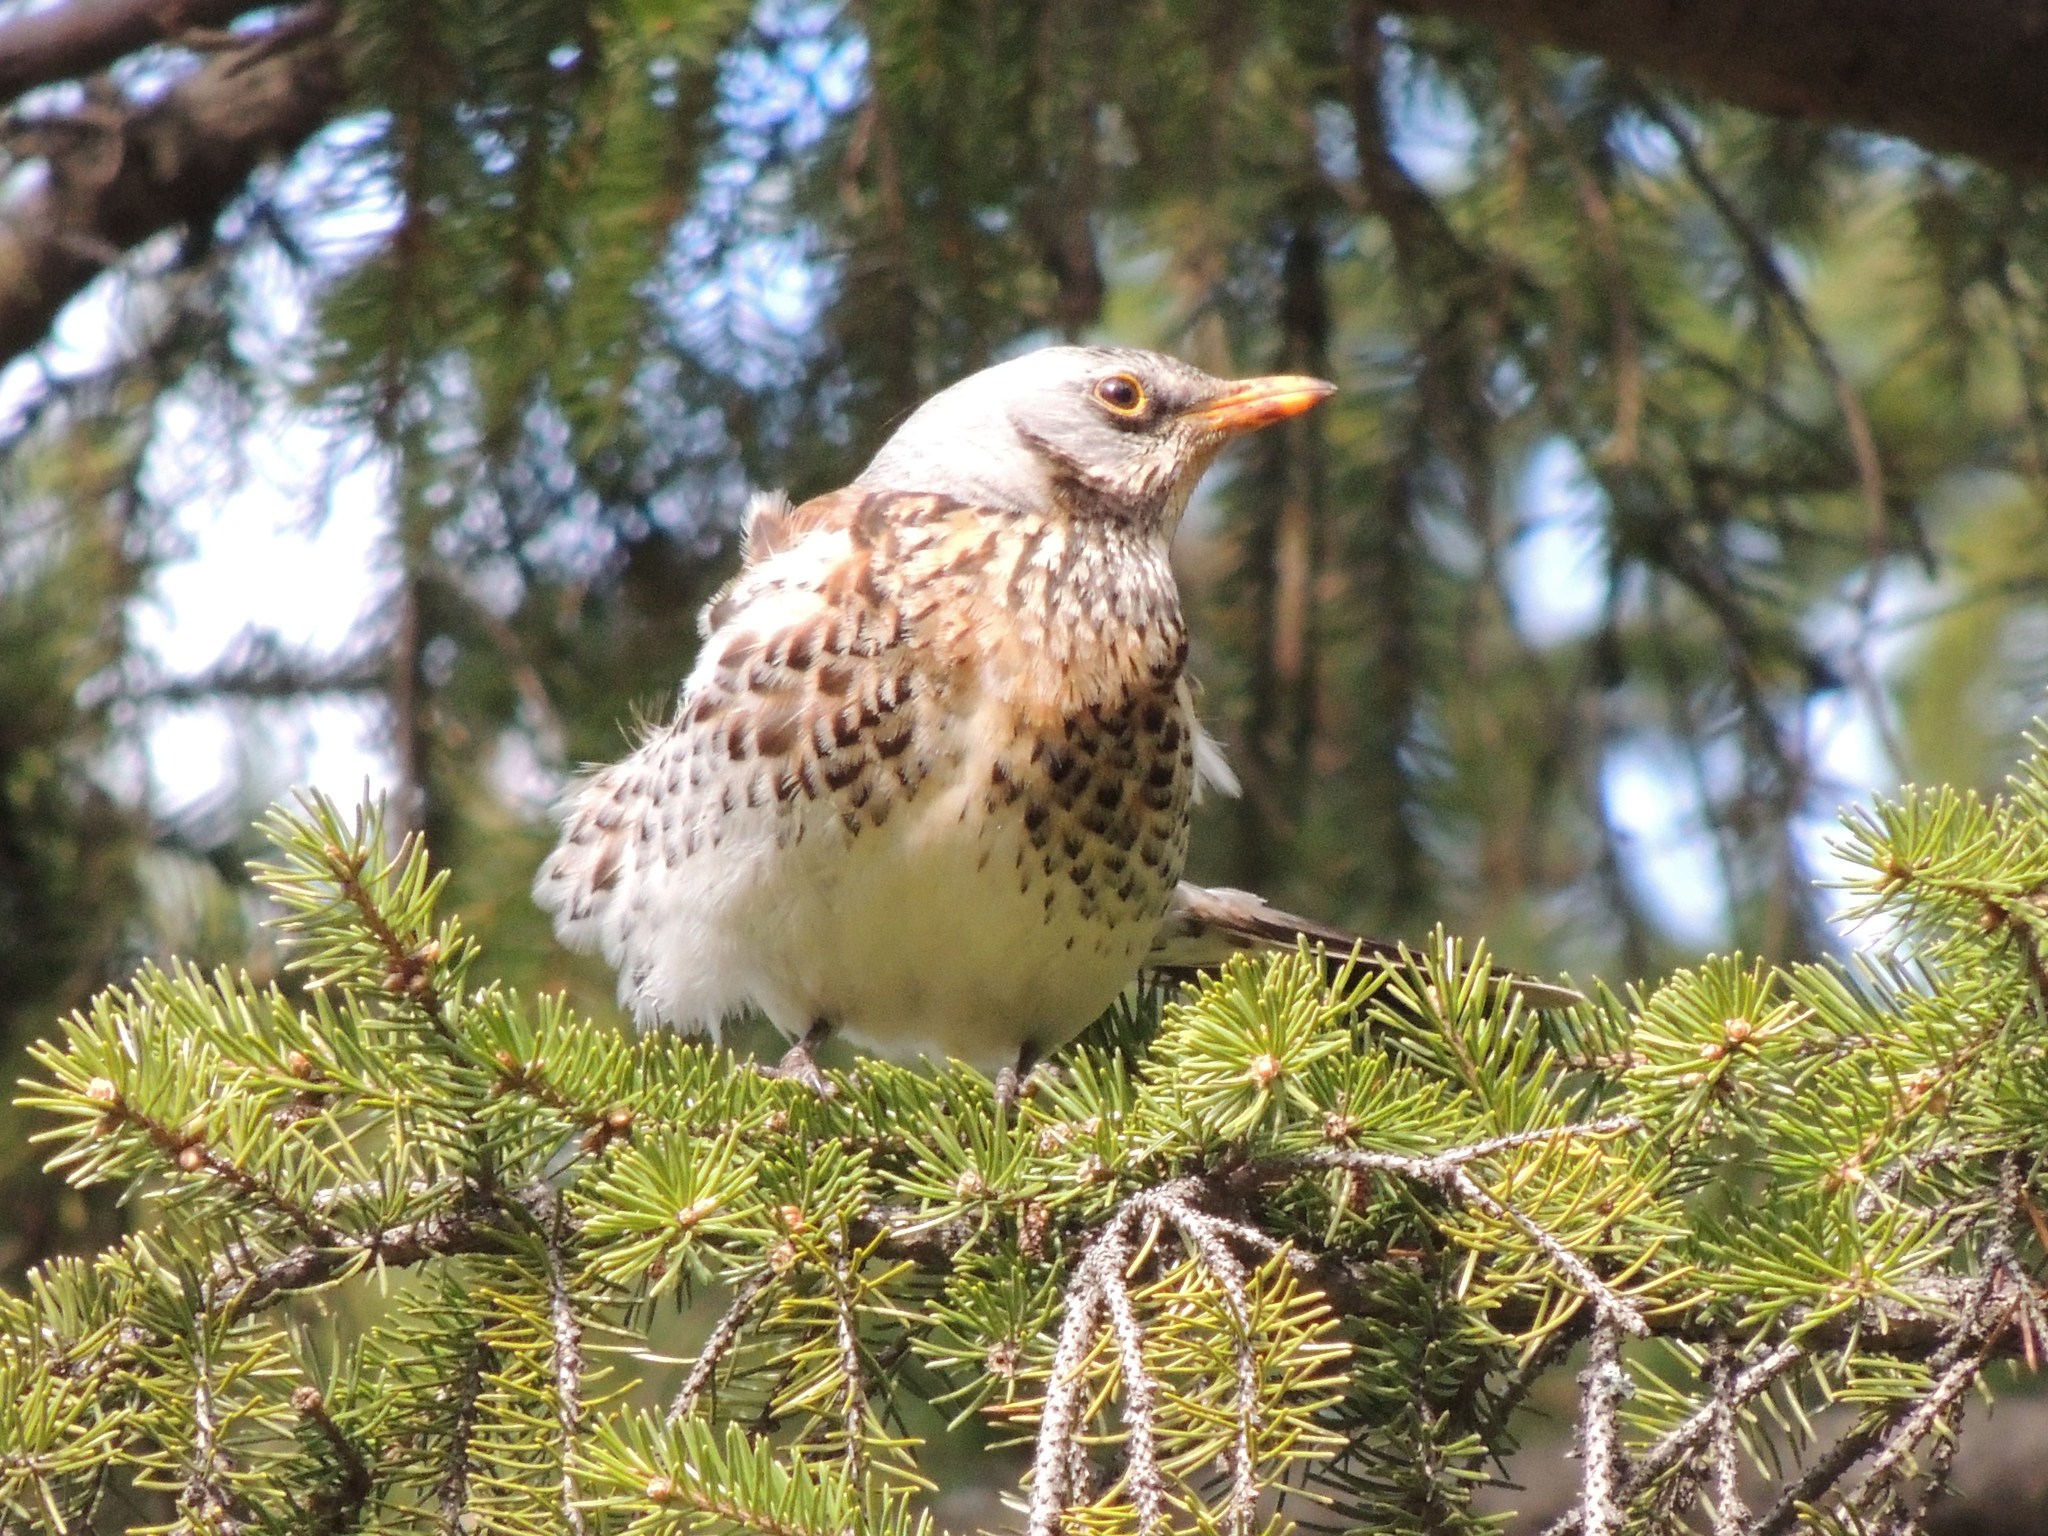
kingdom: Animalia
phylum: Chordata
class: Aves
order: Passeriformes
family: Turdidae
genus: Turdus
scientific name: Turdus pilaris
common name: Fieldfare
